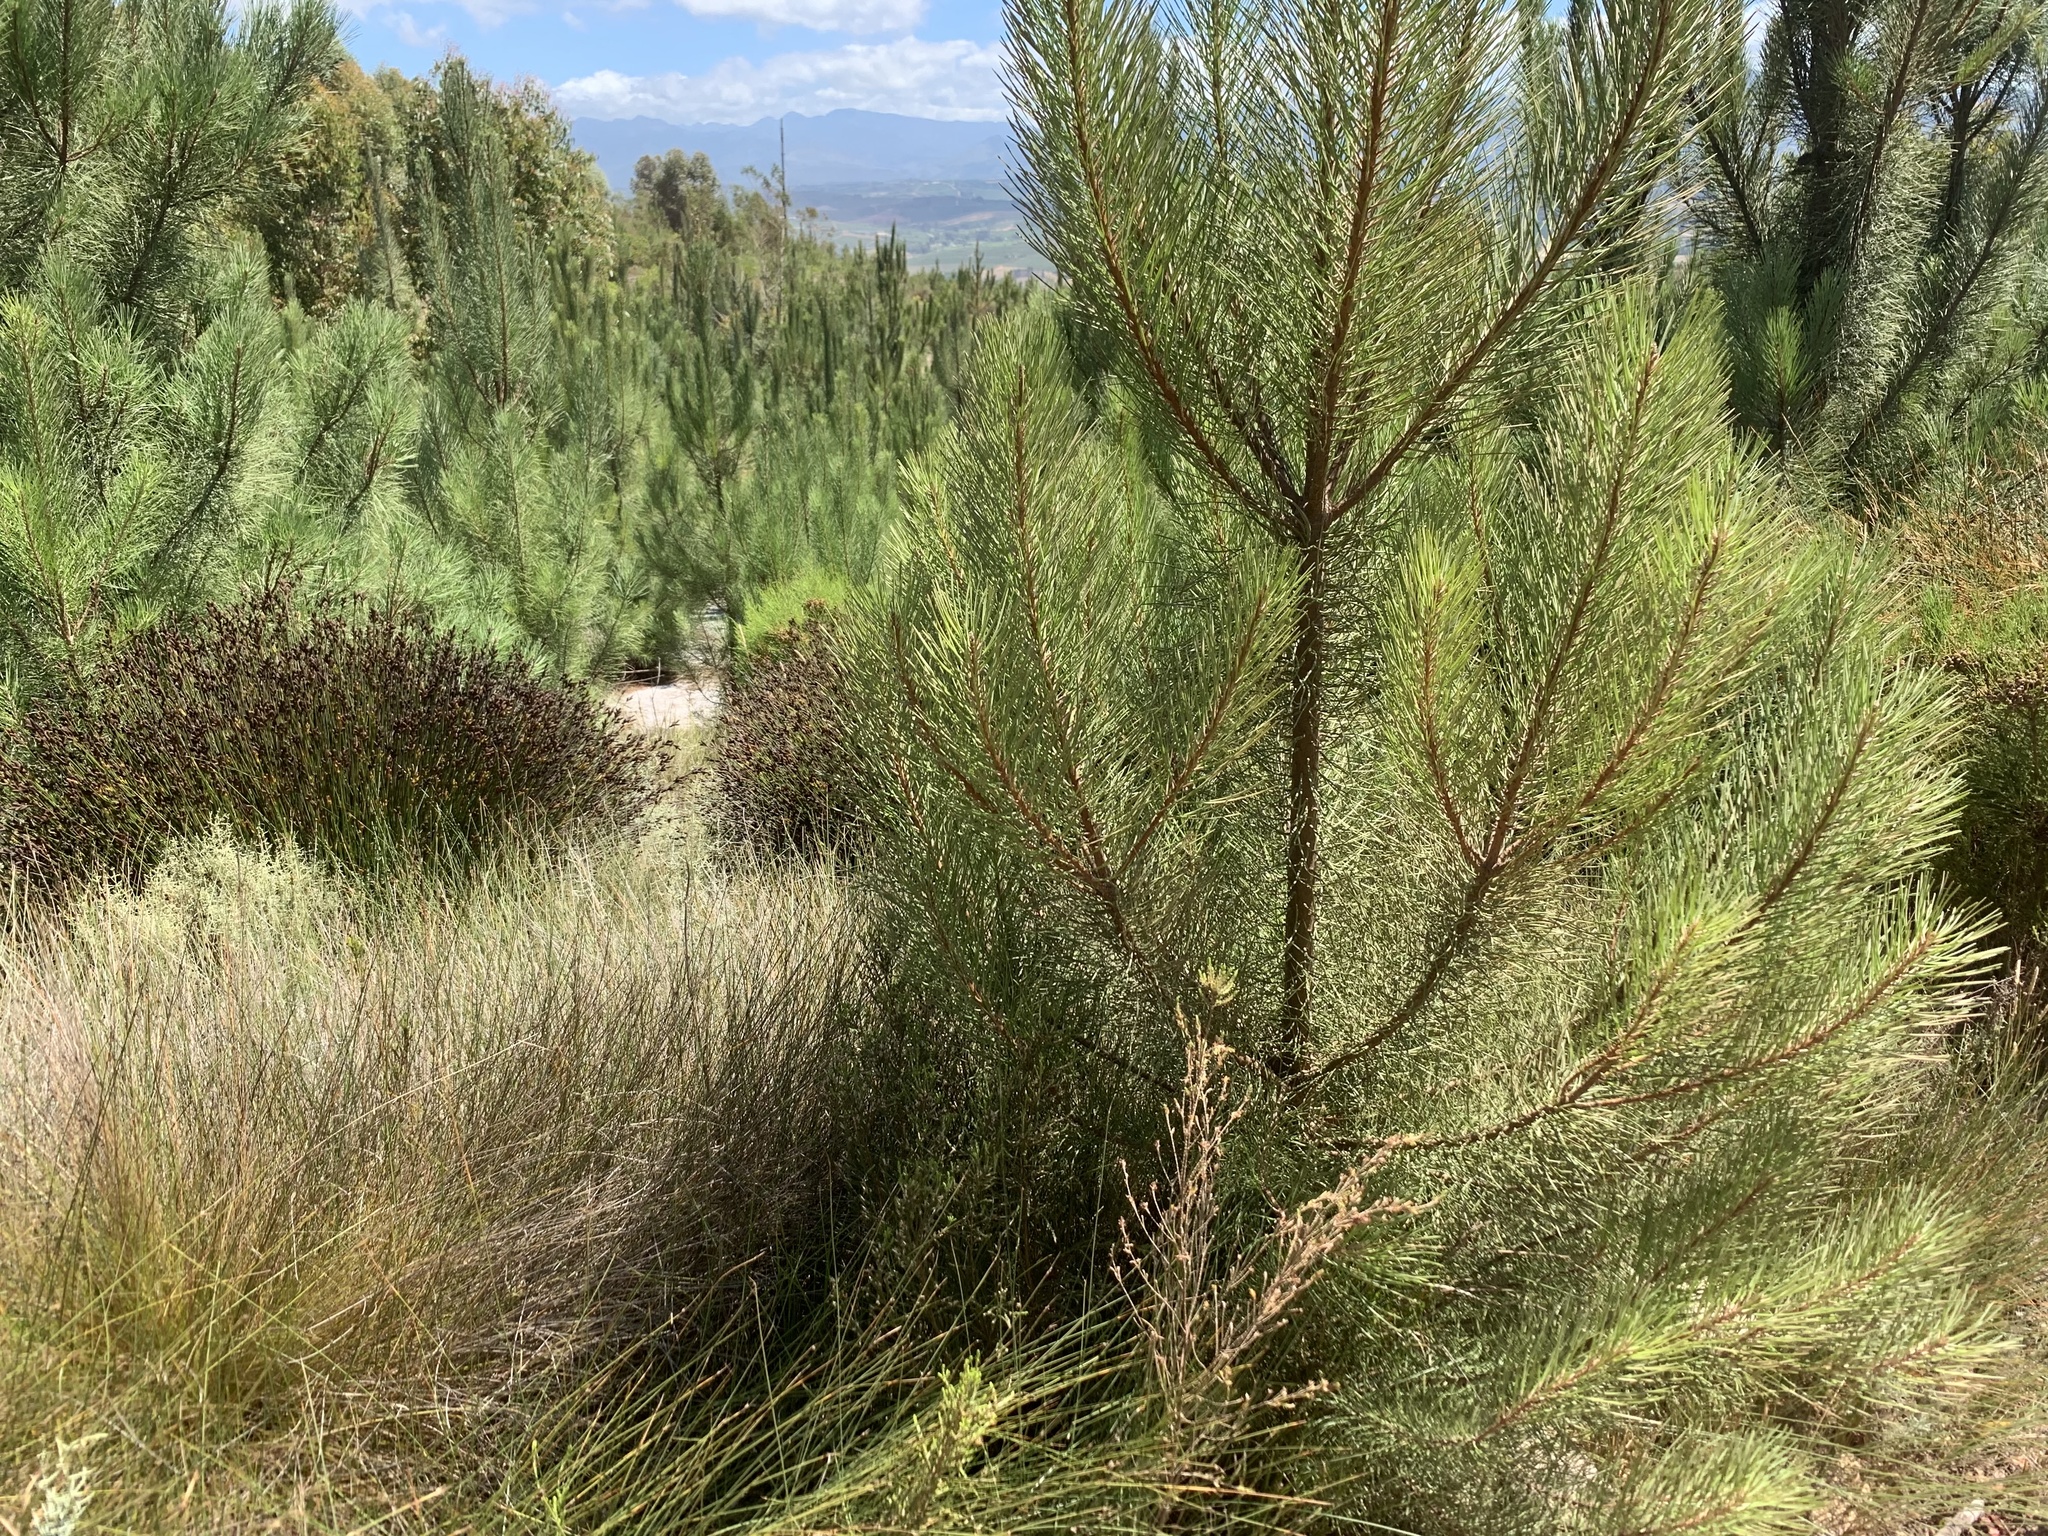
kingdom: Plantae
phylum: Tracheophyta
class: Pinopsida
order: Pinales
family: Pinaceae
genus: Pinus
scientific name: Pinus pinaster
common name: Maritime pine
